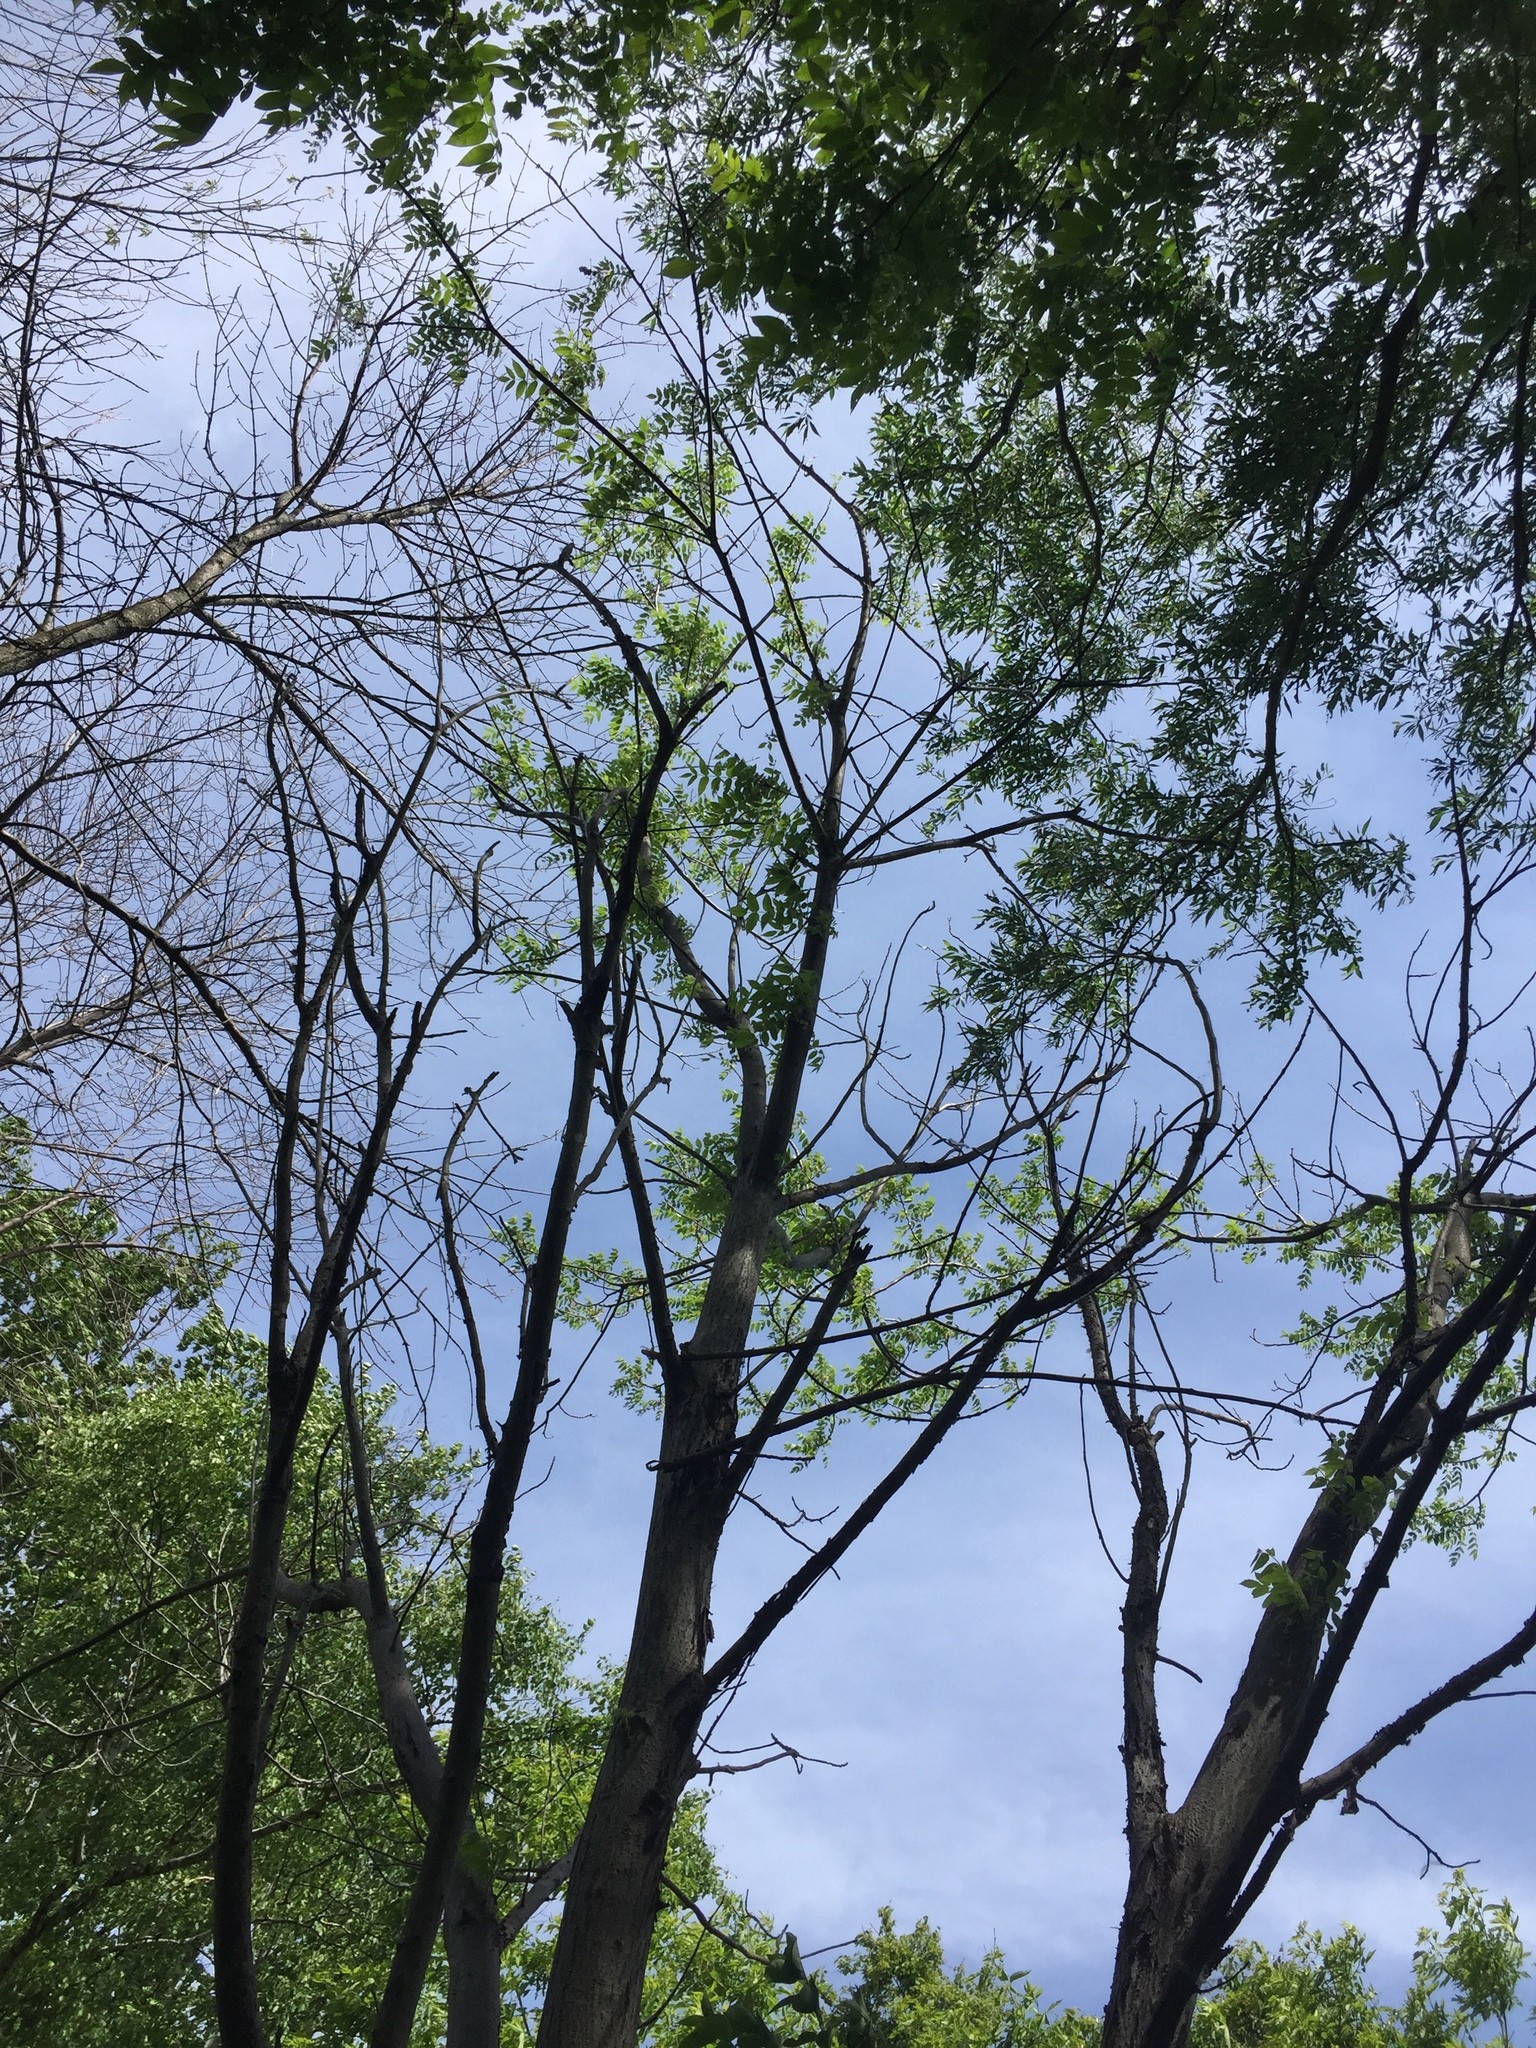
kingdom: Plantae
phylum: Tracheophyta
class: Magnoliopsida
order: Fagales
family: Juglandaceae
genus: Juglans
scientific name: Juglans cinerea
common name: Butternut
